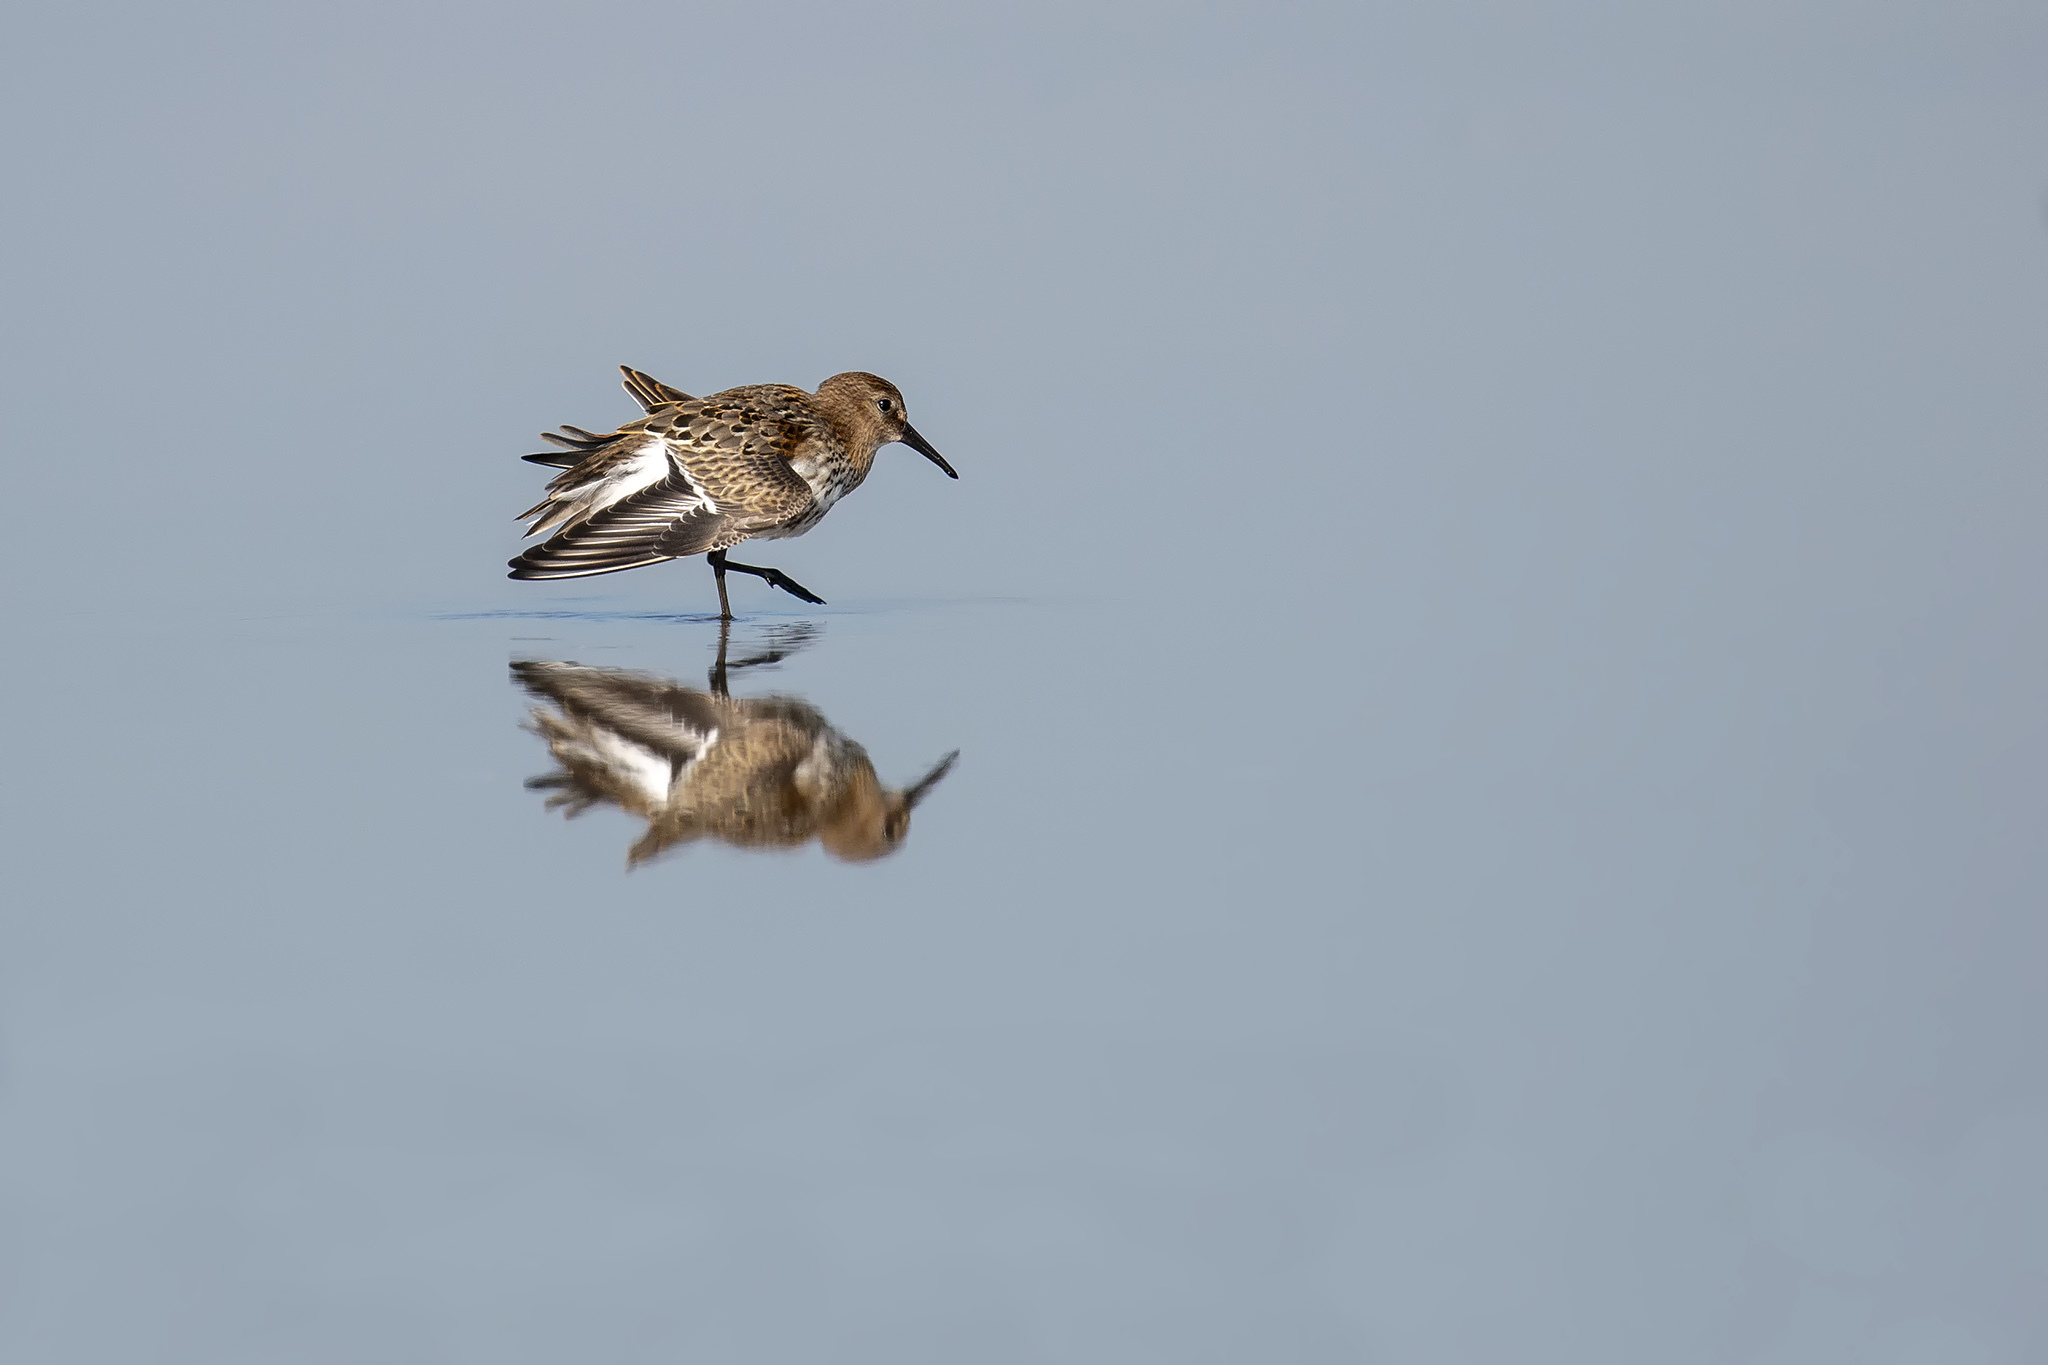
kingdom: Animalia
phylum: Chordata
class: Aves
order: Charadriiformes
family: Scolopacidae
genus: Calidris
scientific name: Calidris alpina
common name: Dunlin
